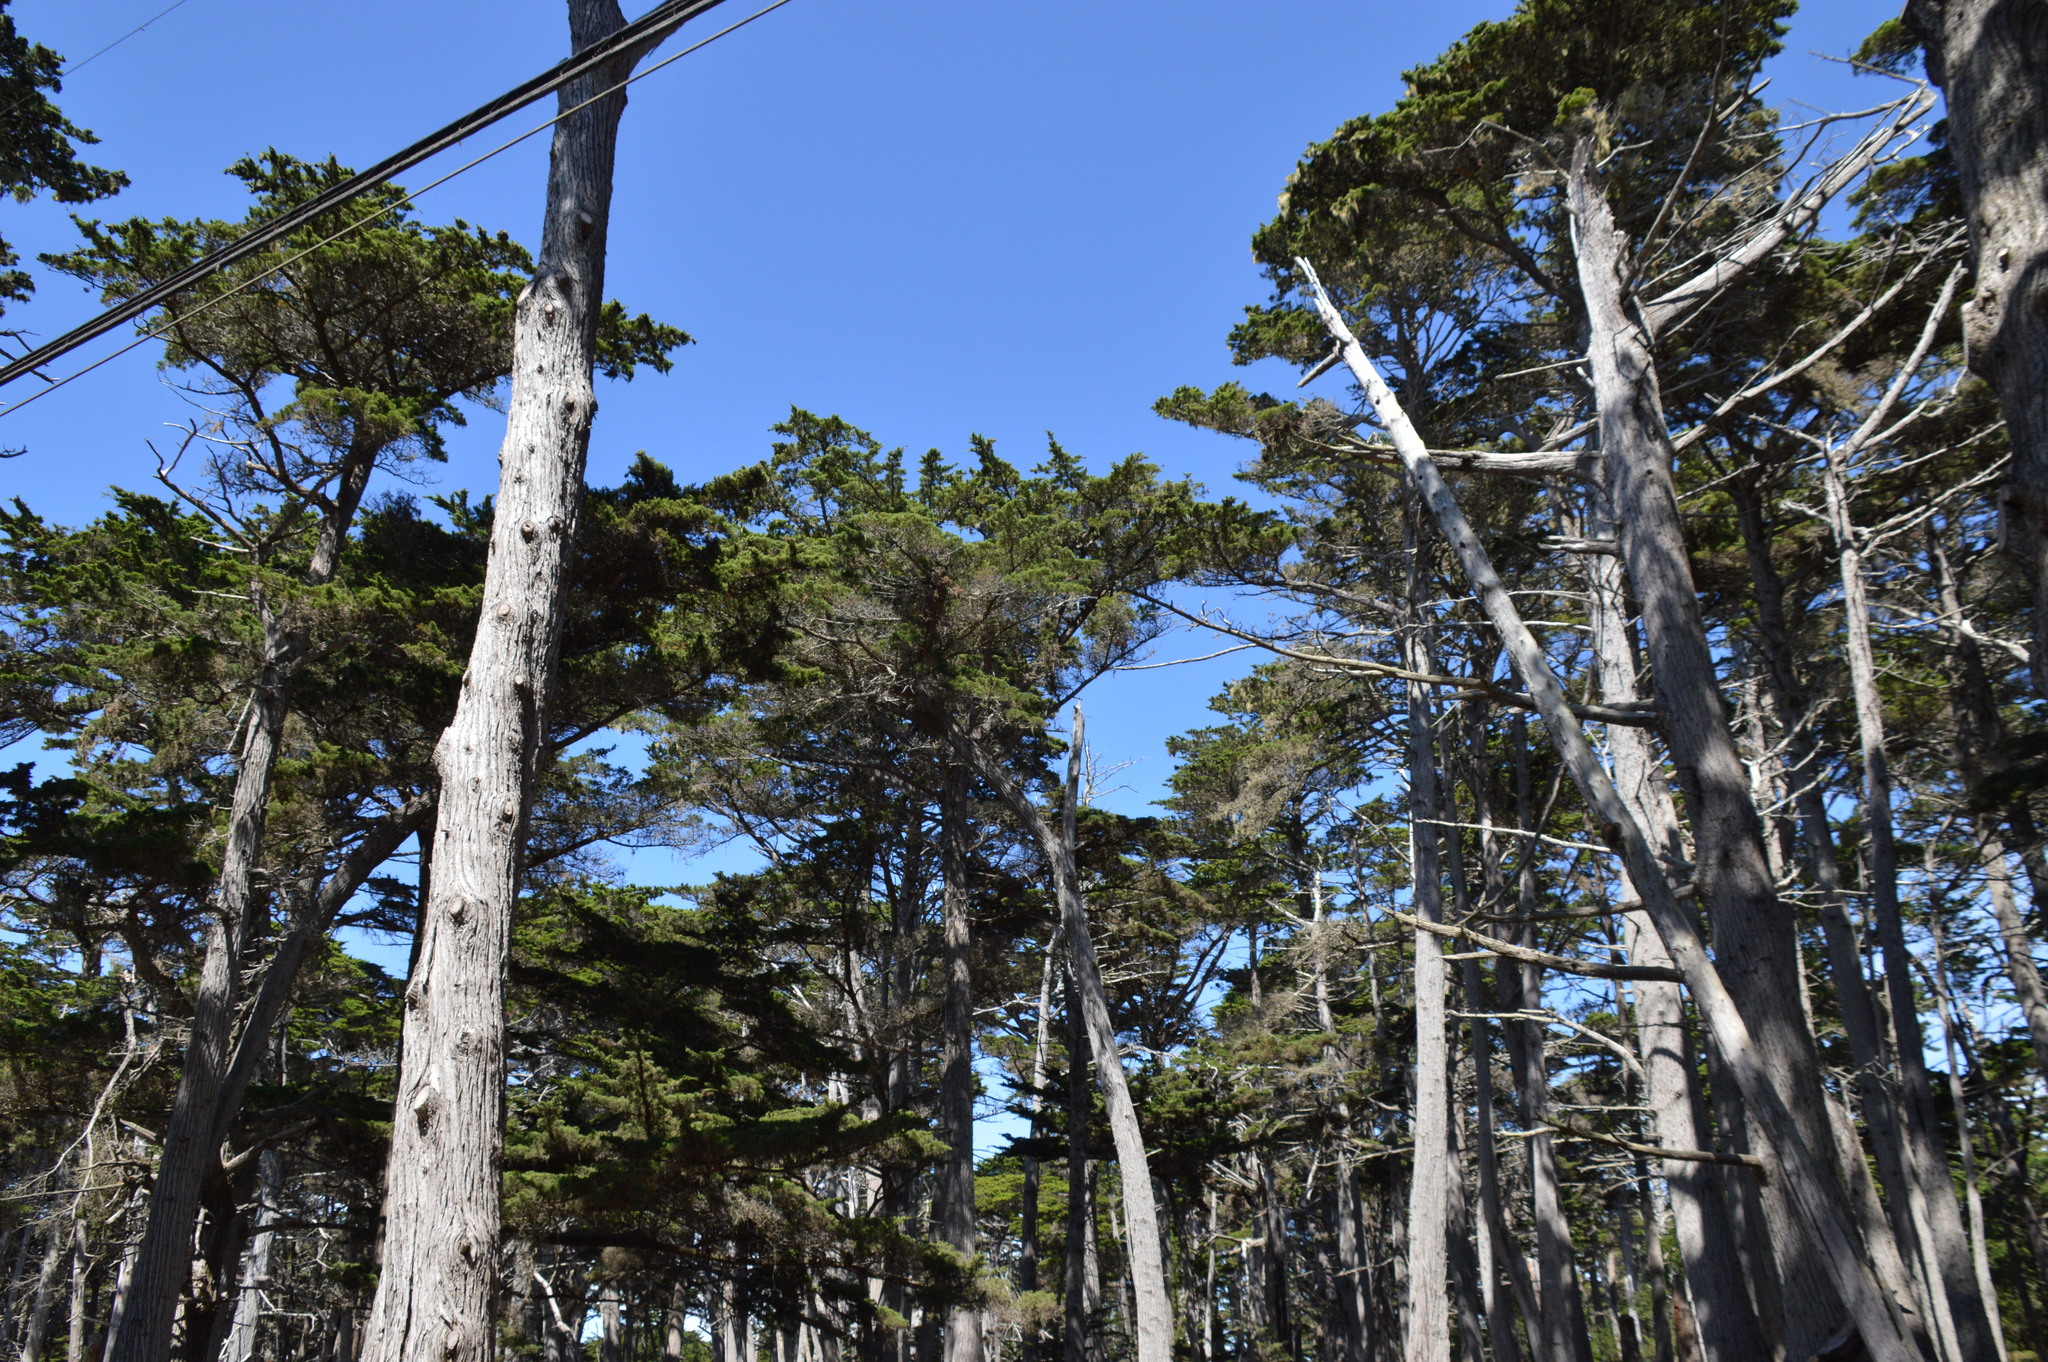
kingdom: Plantae
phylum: Tracheophyta
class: Pinopsida
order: Pinales
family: Cupressaceae
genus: Cupressus
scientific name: Cupressus macrocarpa
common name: Monterey cypress
